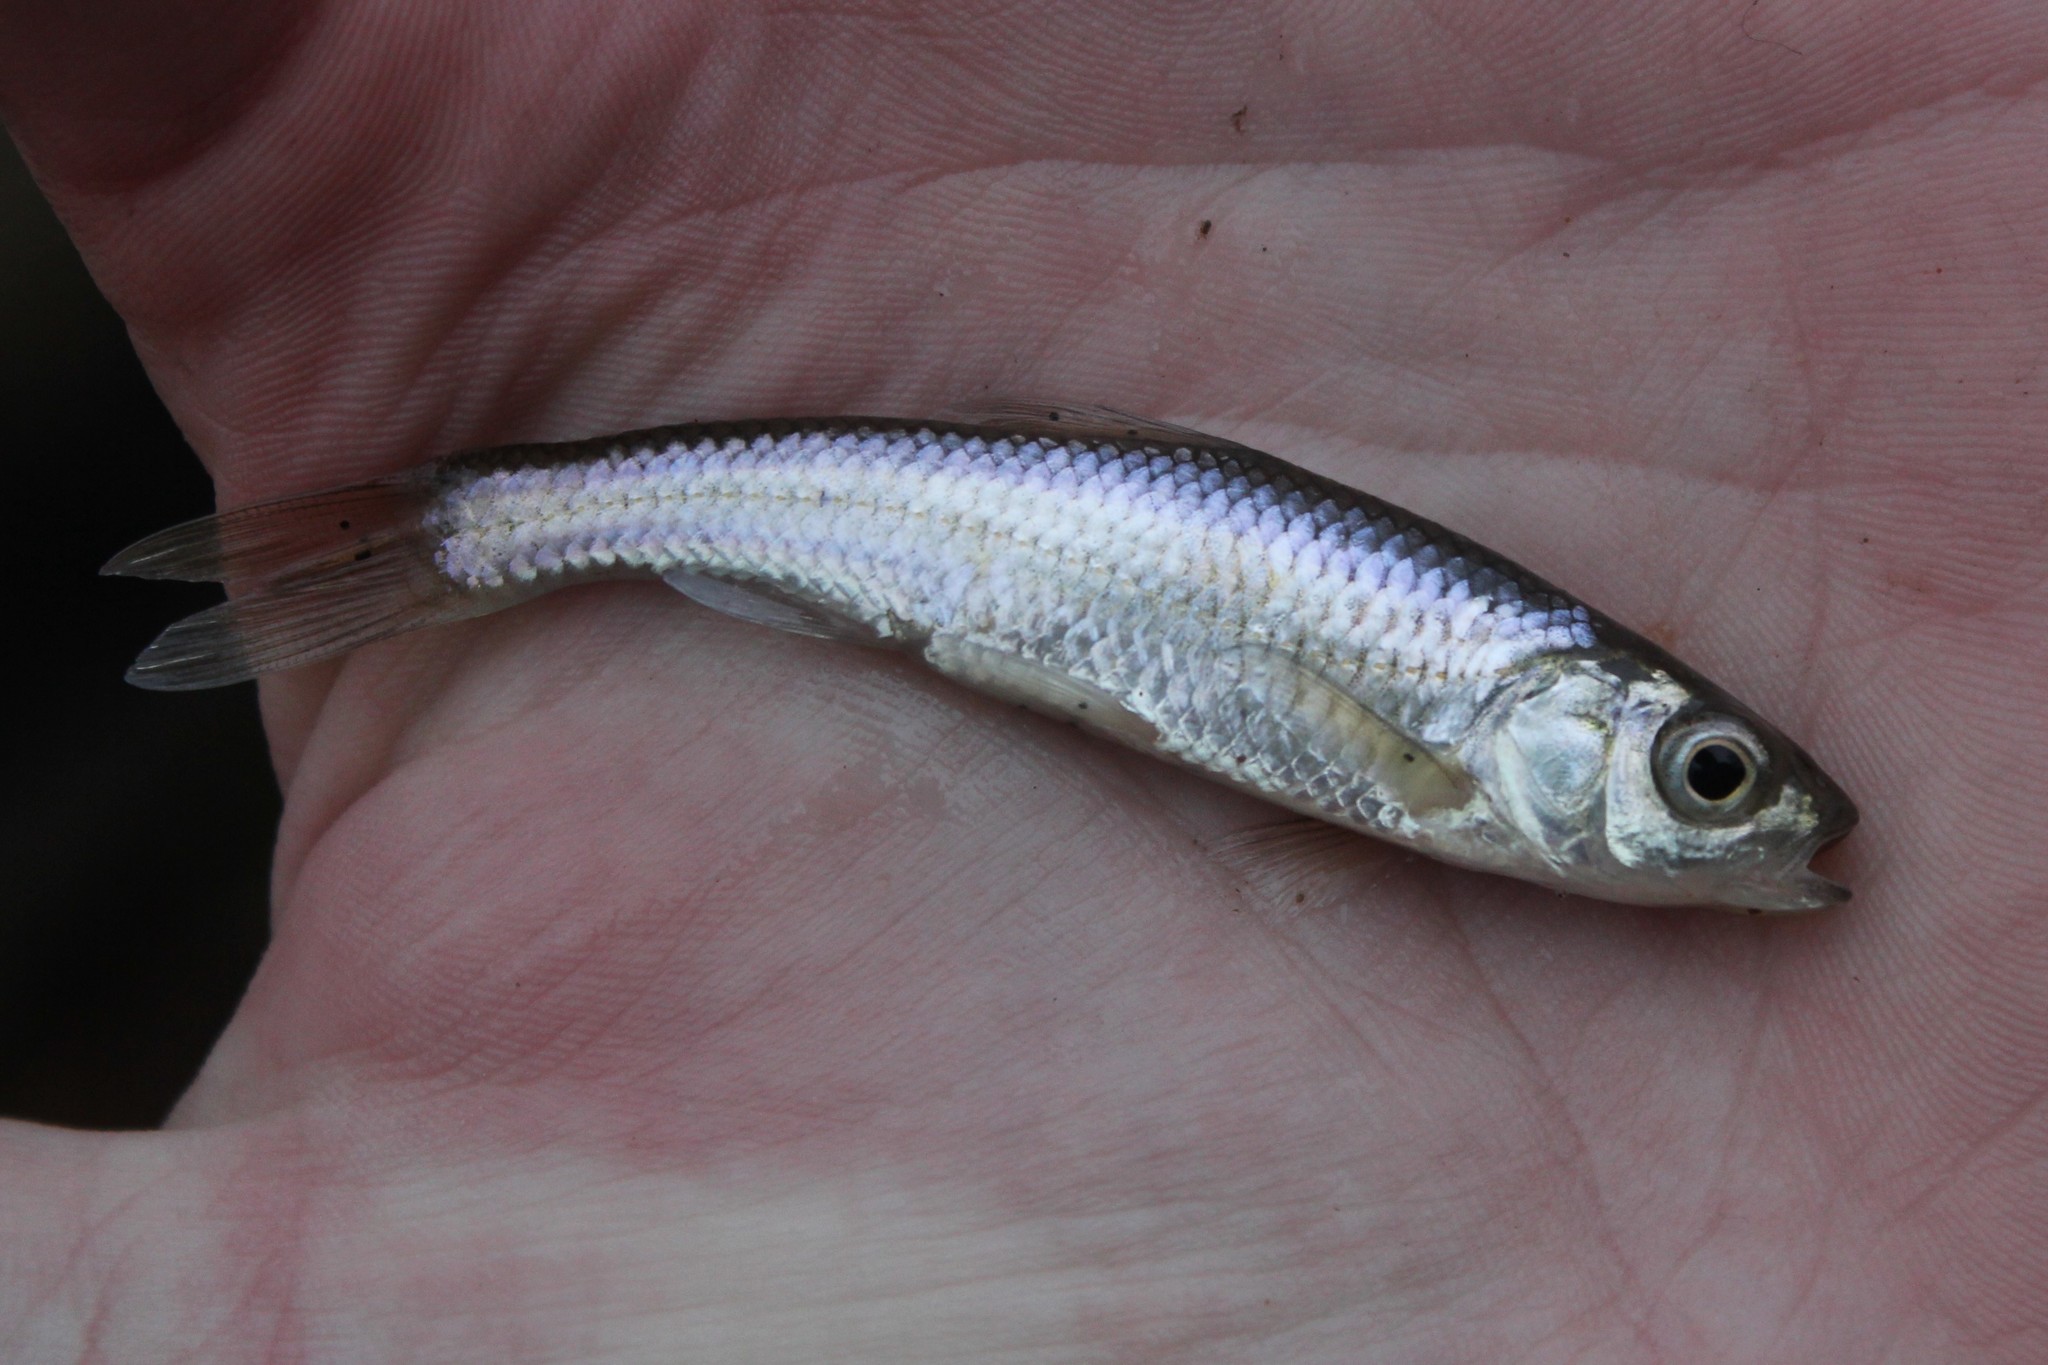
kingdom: Animalia
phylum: Chordata
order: Cypriniformes
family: Cyprinidae
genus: Luxilus
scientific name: Luxilus chrysocephalus
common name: Striped shiner
